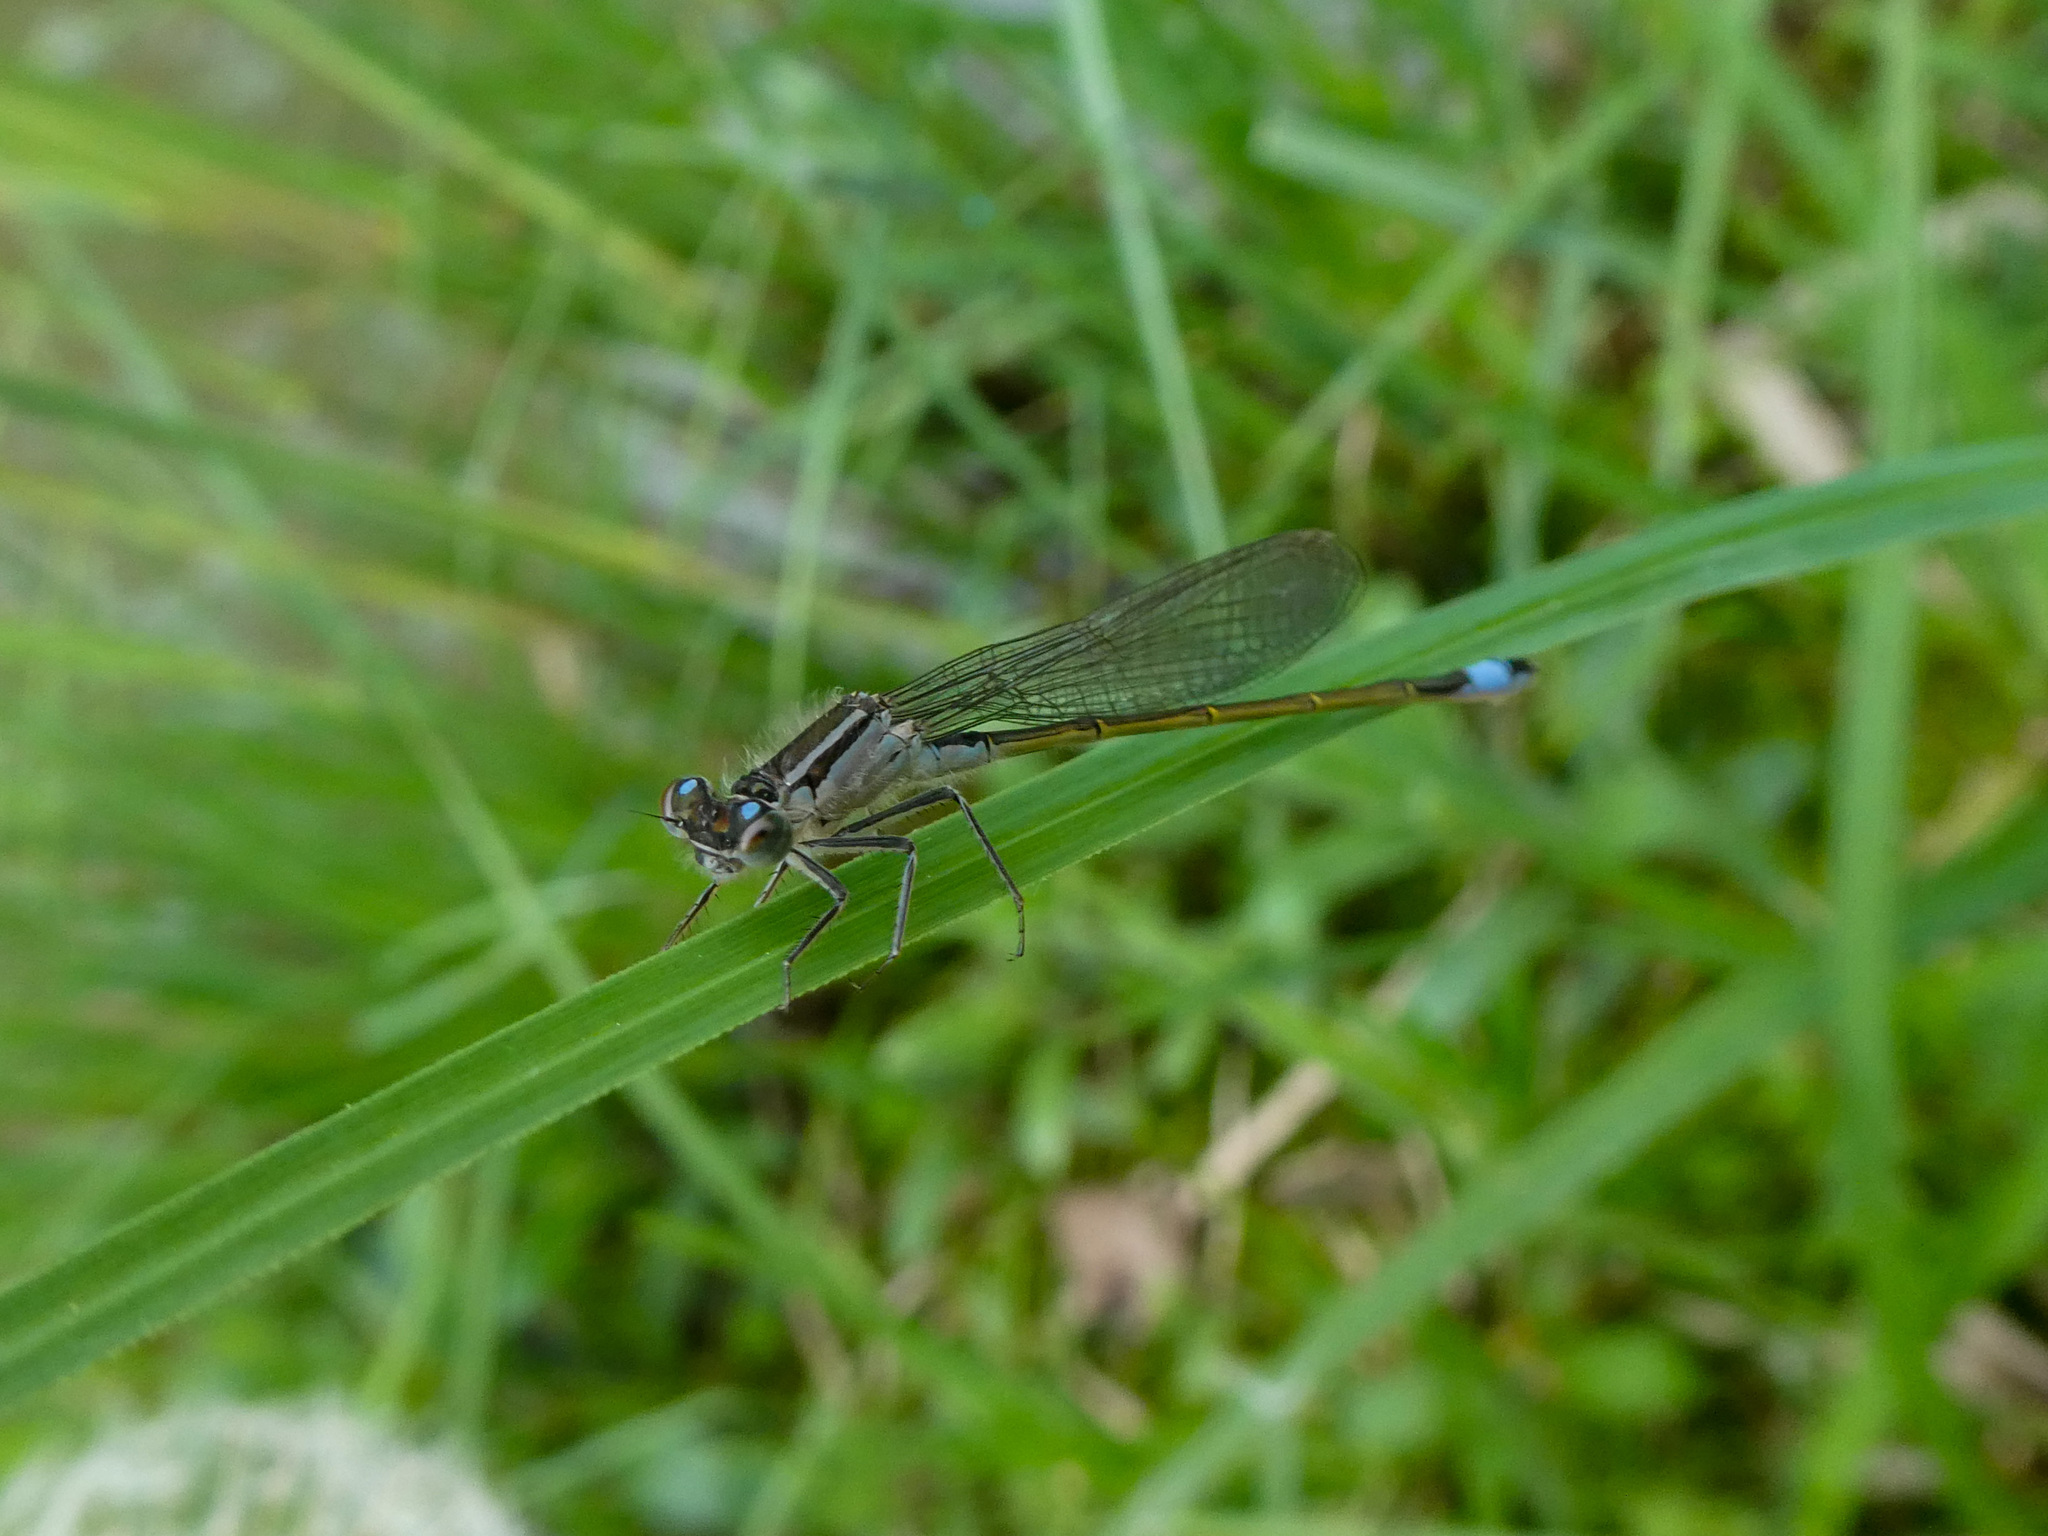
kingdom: Animalia
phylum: Arthropoda
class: Insecta
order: Odonata
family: Coenagrionidae
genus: Ischnura
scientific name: Ischnura elegans
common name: Blue-tailed damselfly
